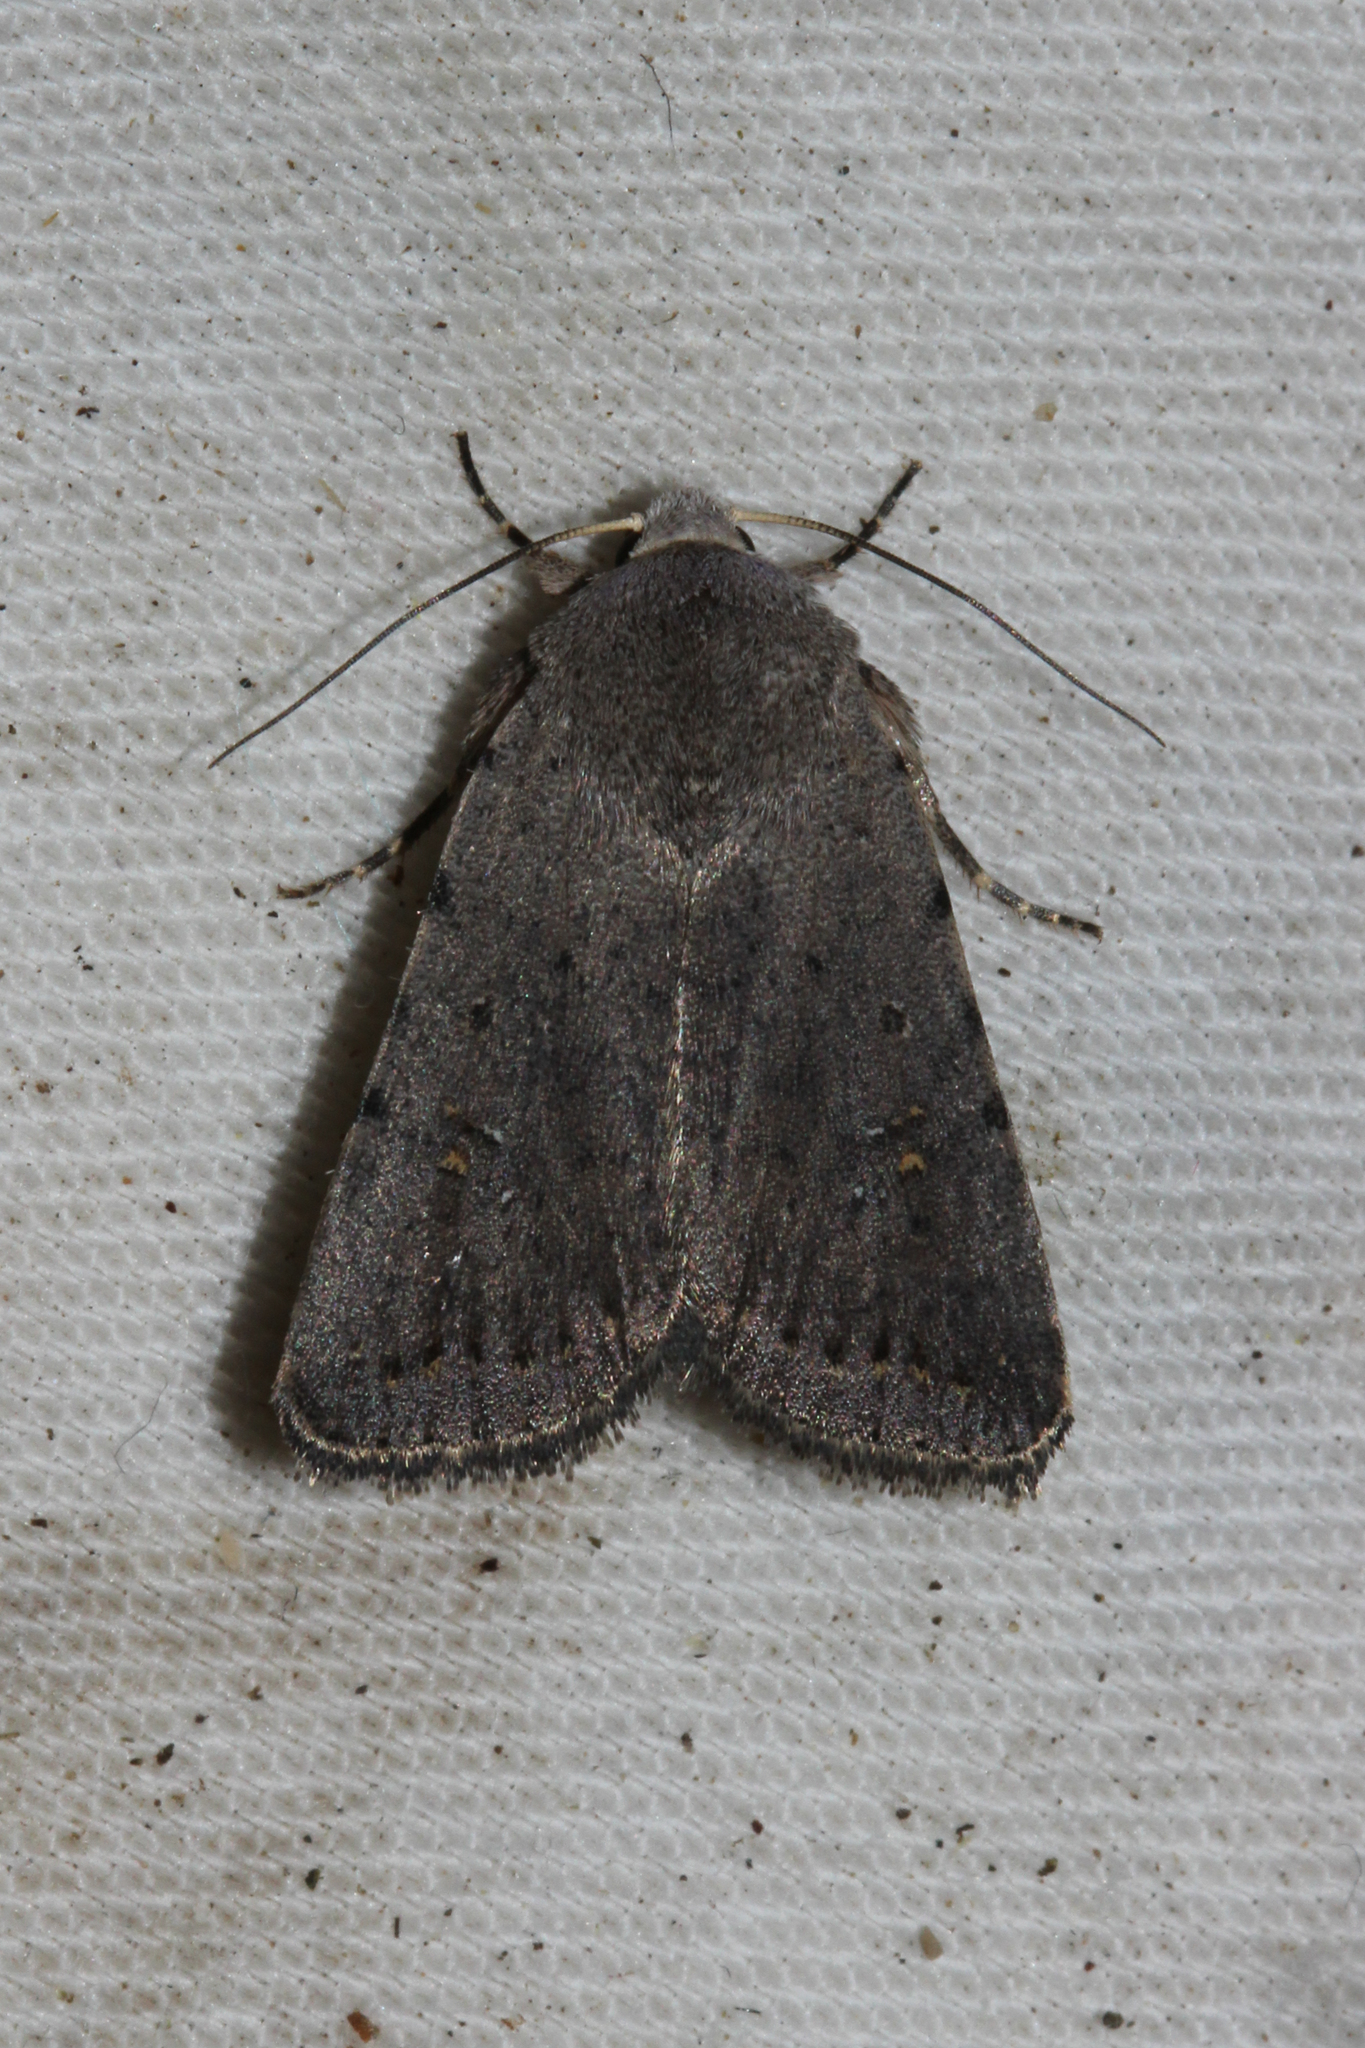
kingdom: Animalia
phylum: Arthropoda
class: Insecta
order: Lepidoptera
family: Noctuidae
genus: Caradrina
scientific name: Caradrina flavirena
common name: Lorimer's rustic
